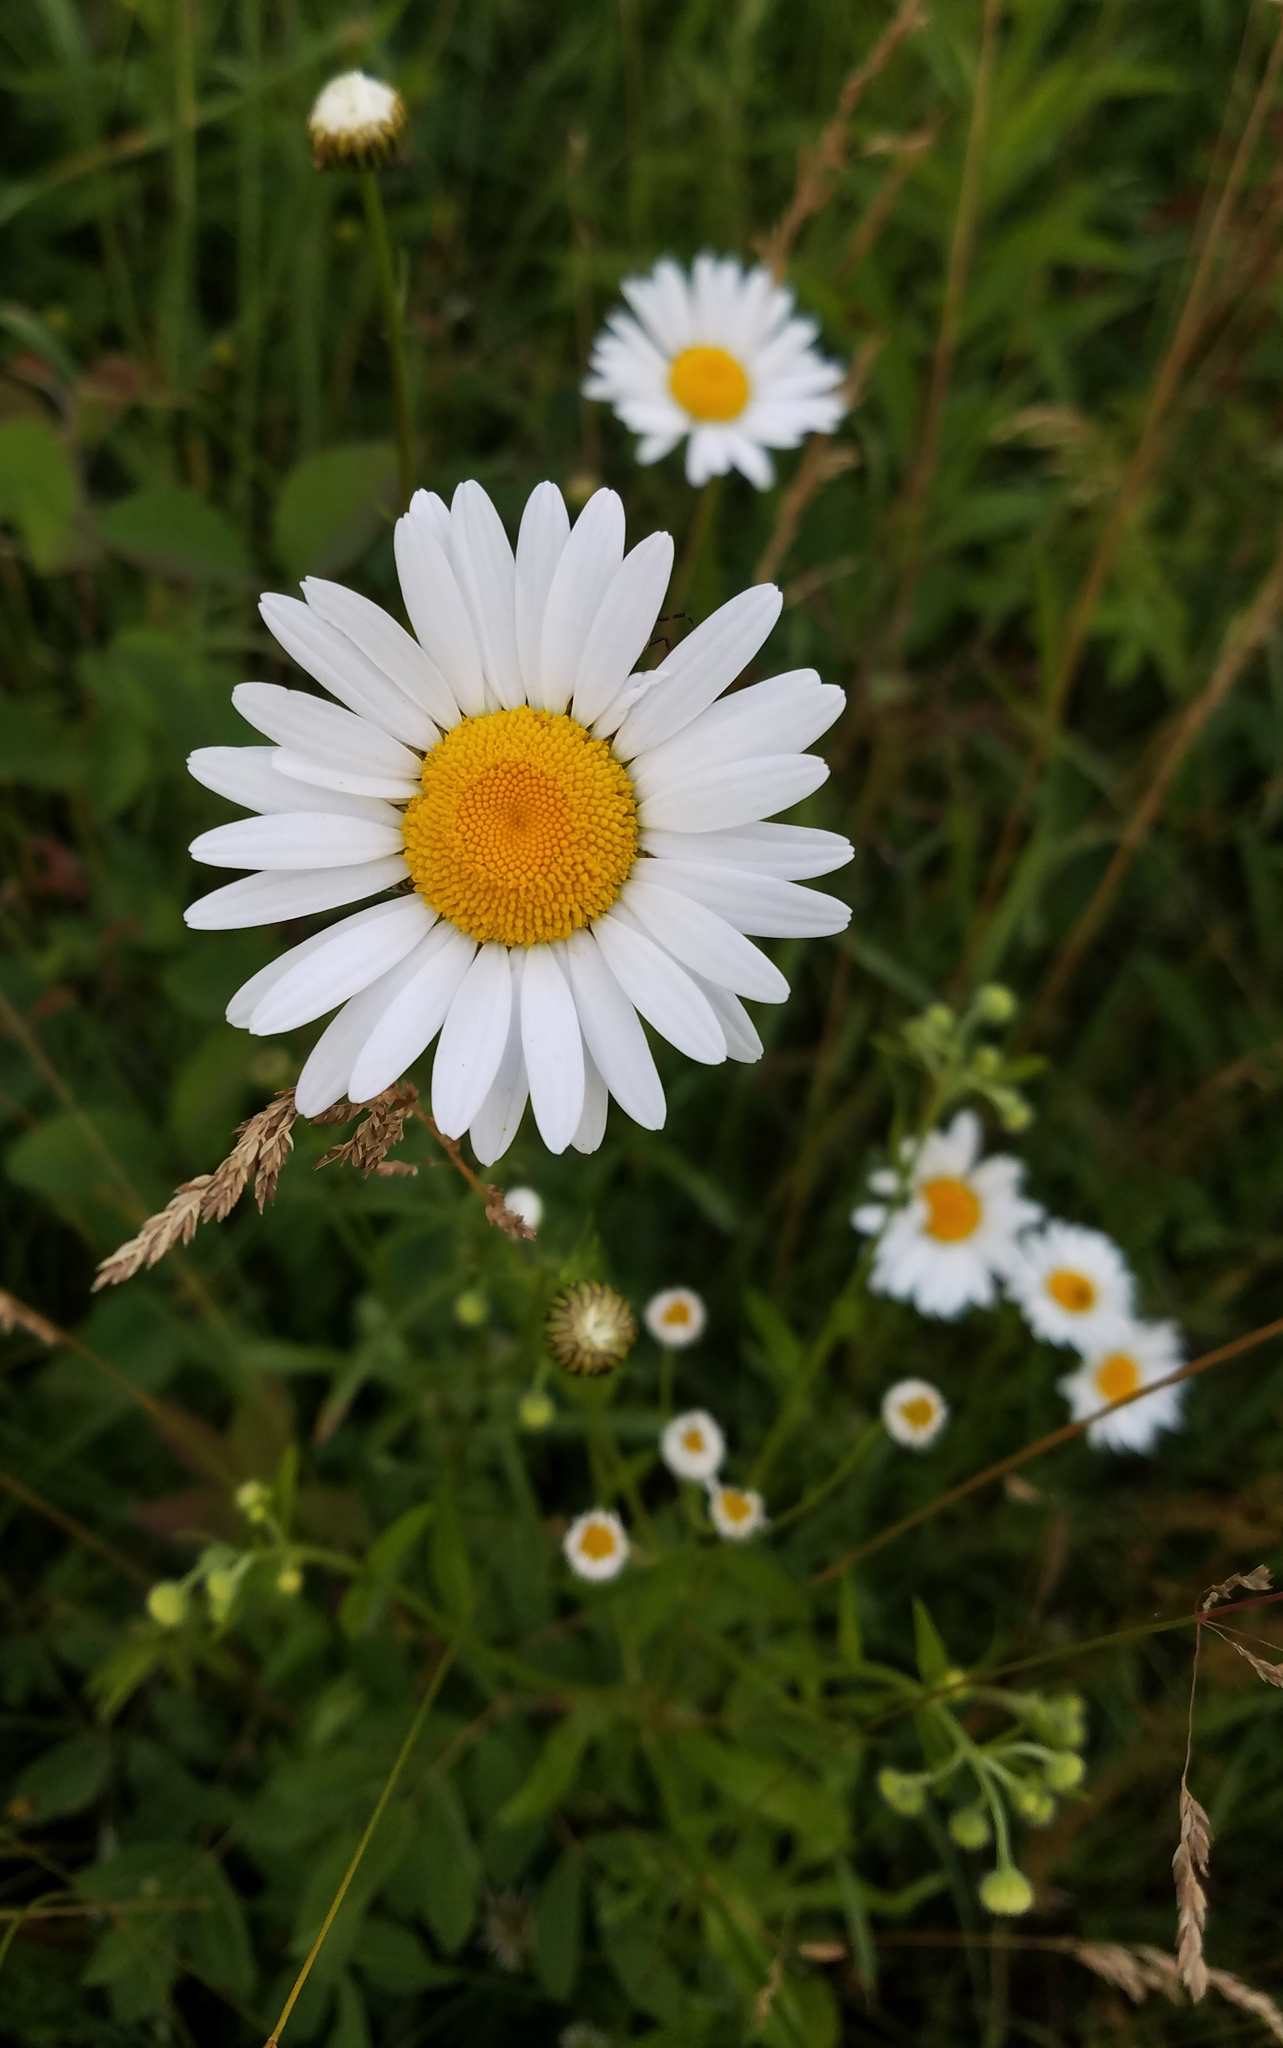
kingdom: Plantae
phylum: Tracheophyta
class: Magnoliopsida
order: Asterales
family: Asteraceae
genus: Leucanthemum
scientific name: Leucanthemum vulgare
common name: Oxeye daisy
